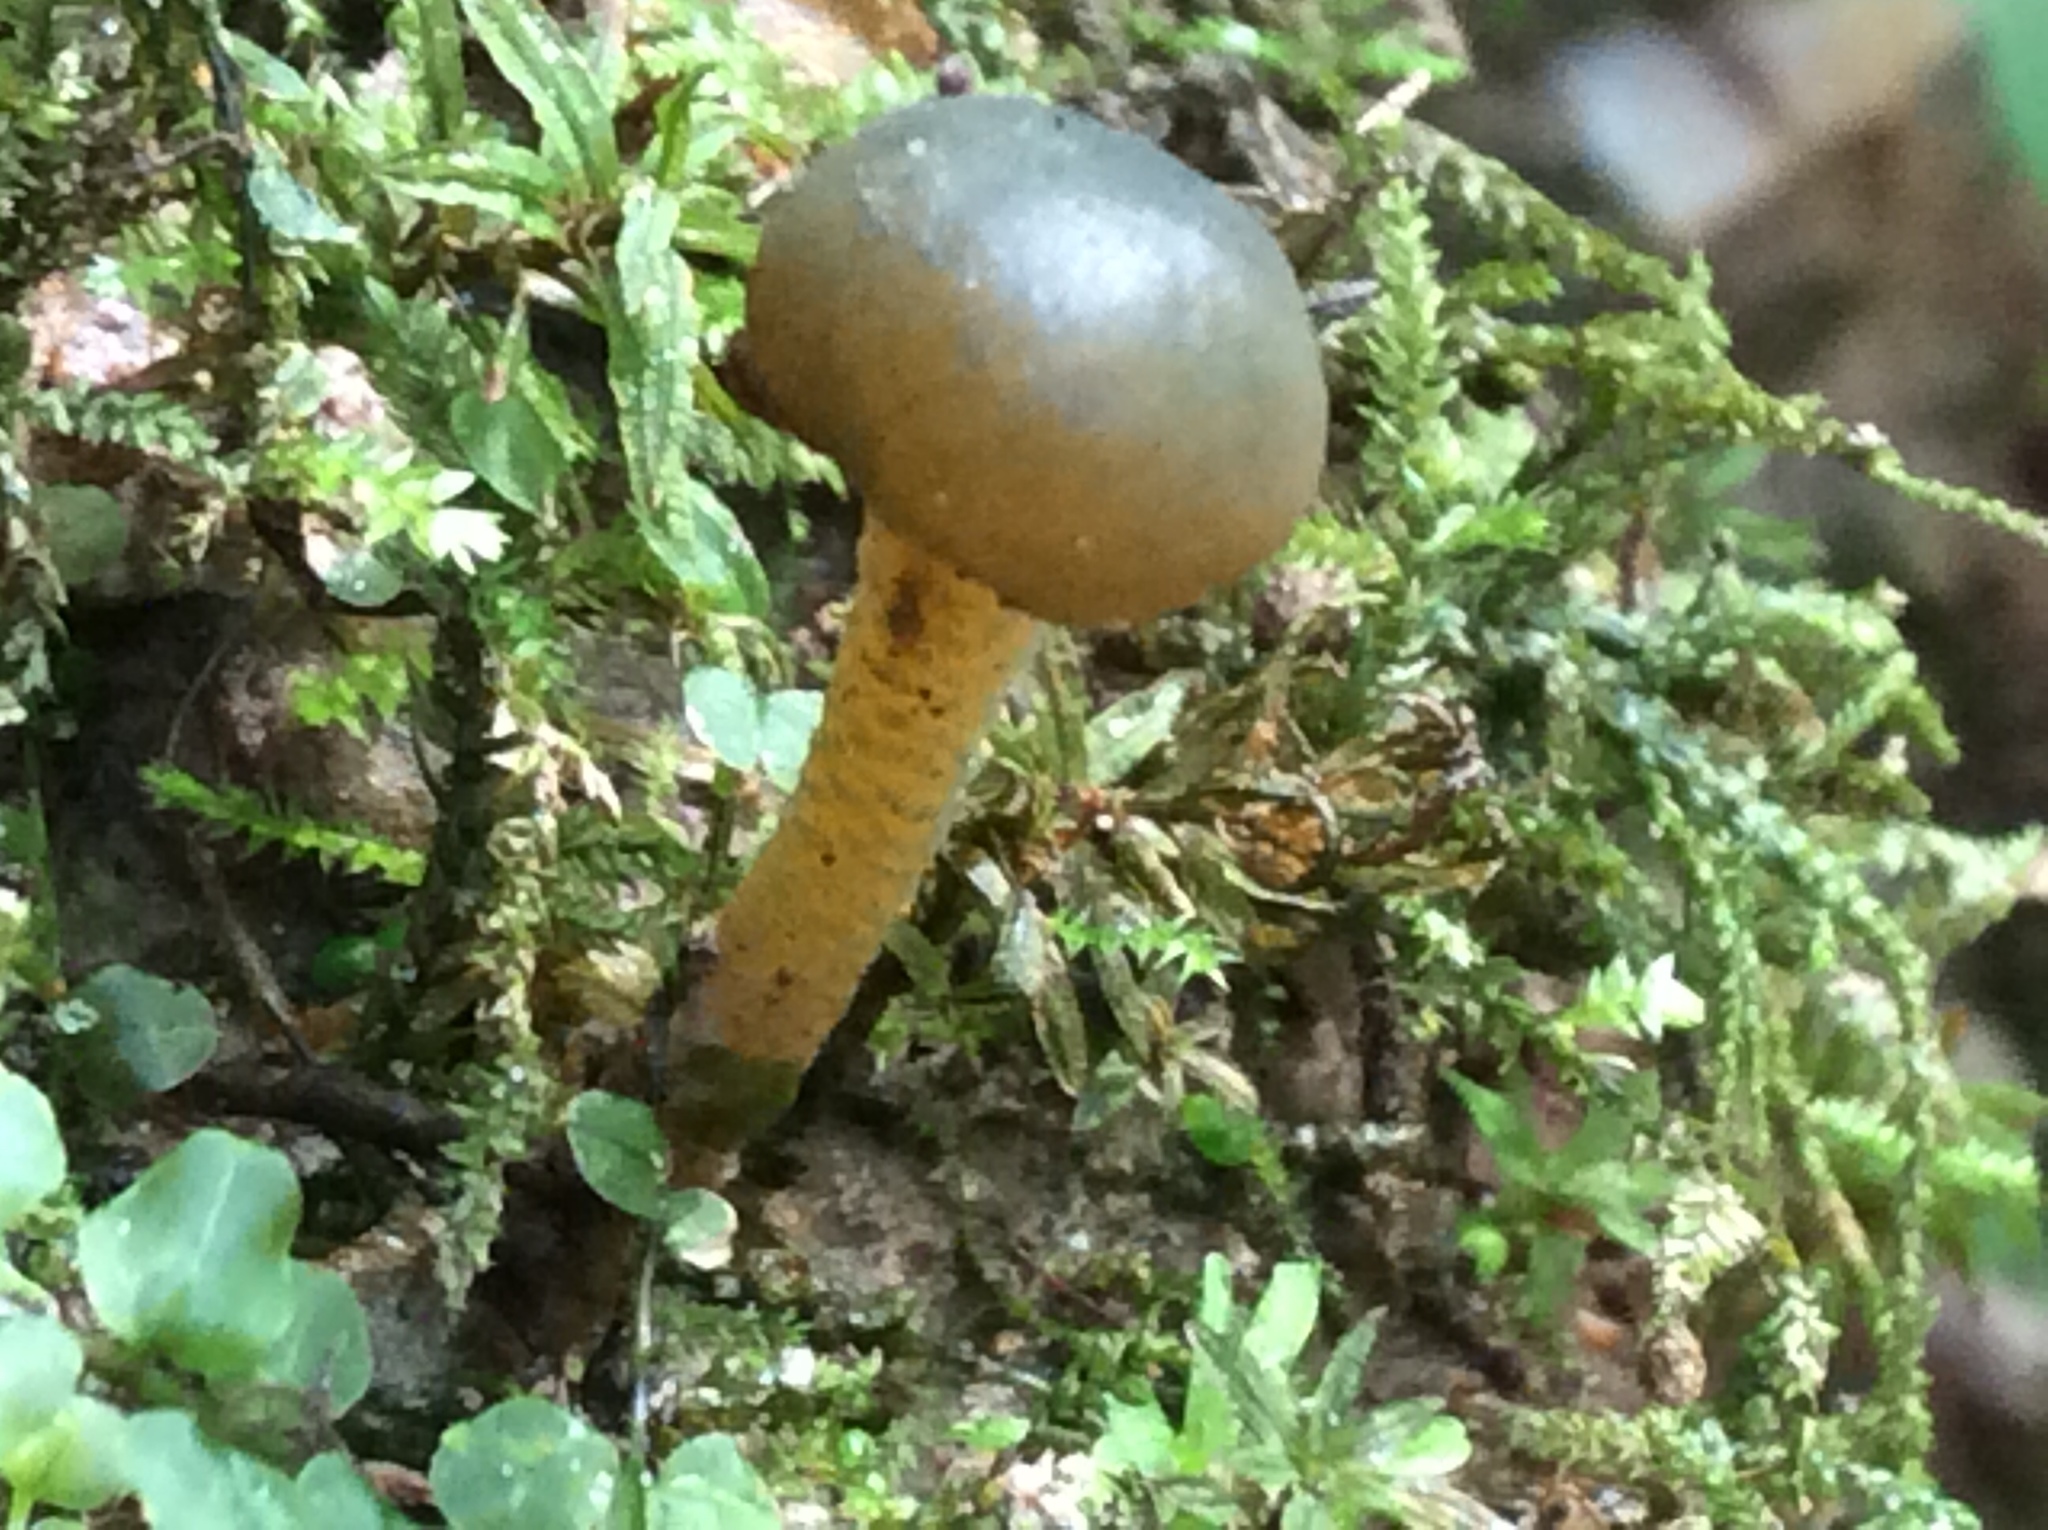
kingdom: Fungi
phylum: Ascomycota
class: Leotiomycetes
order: Leotiales
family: Leotiaceae
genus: Leotia
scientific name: Leotia lubrica
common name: Jellybaby
